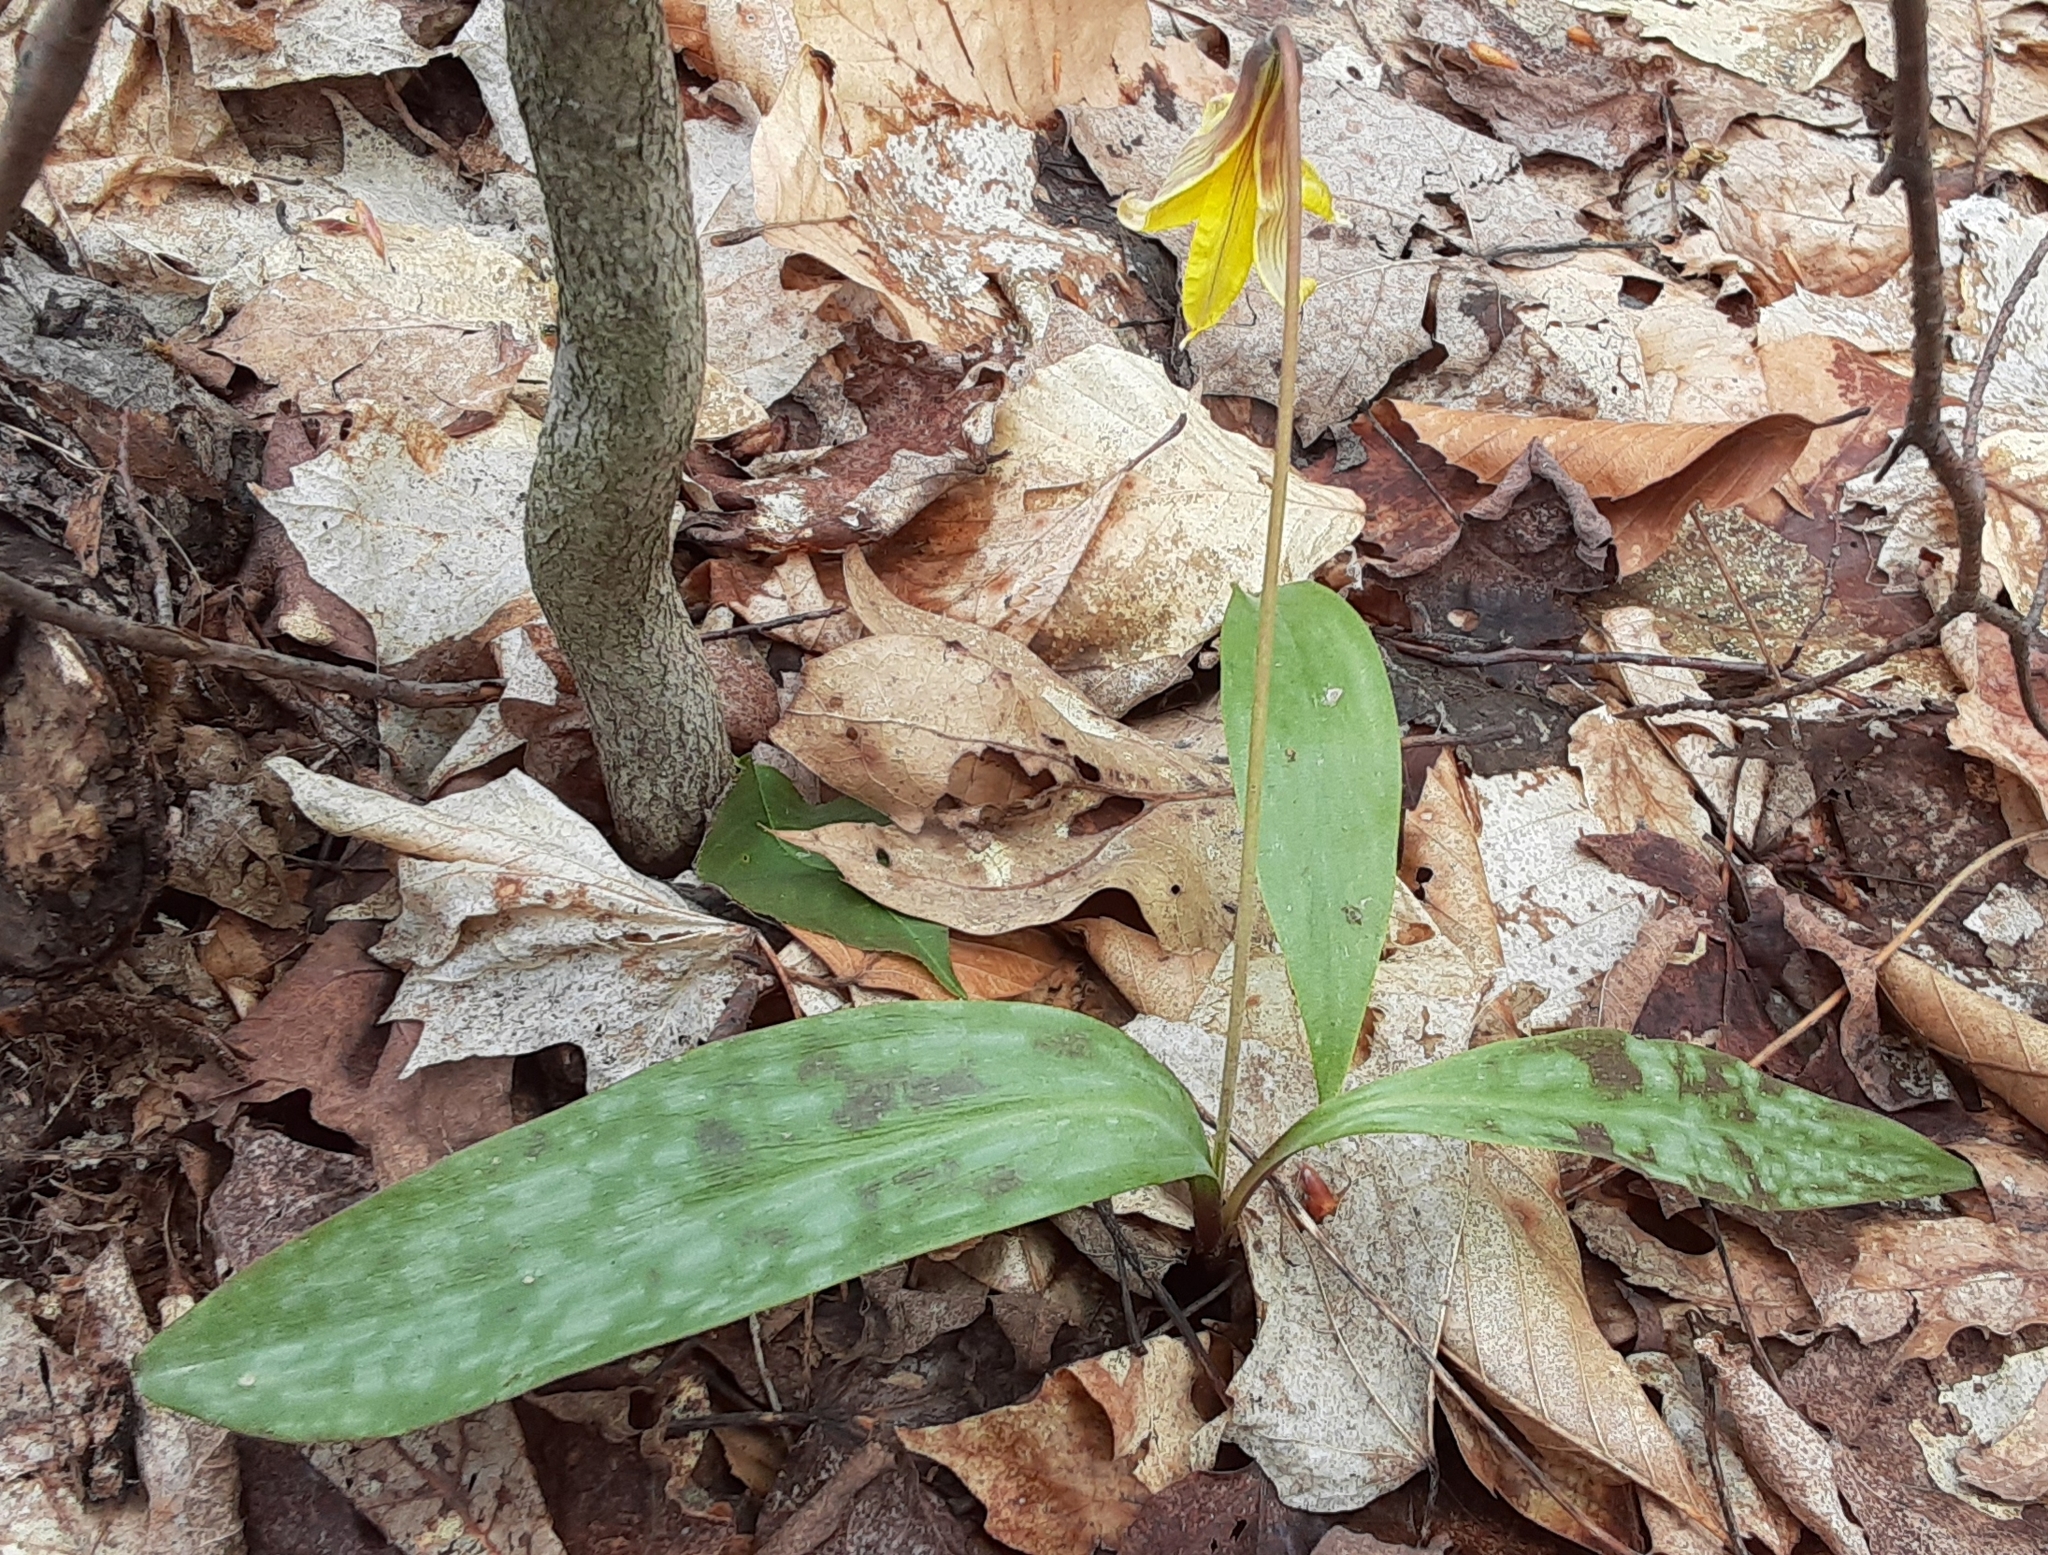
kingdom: Plantae
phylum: Tracheophyta
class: Liliopsida
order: Liliales
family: Liliaceae
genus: Erythronium
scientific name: Erythronium americanum
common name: Yellow adder's-tongue
